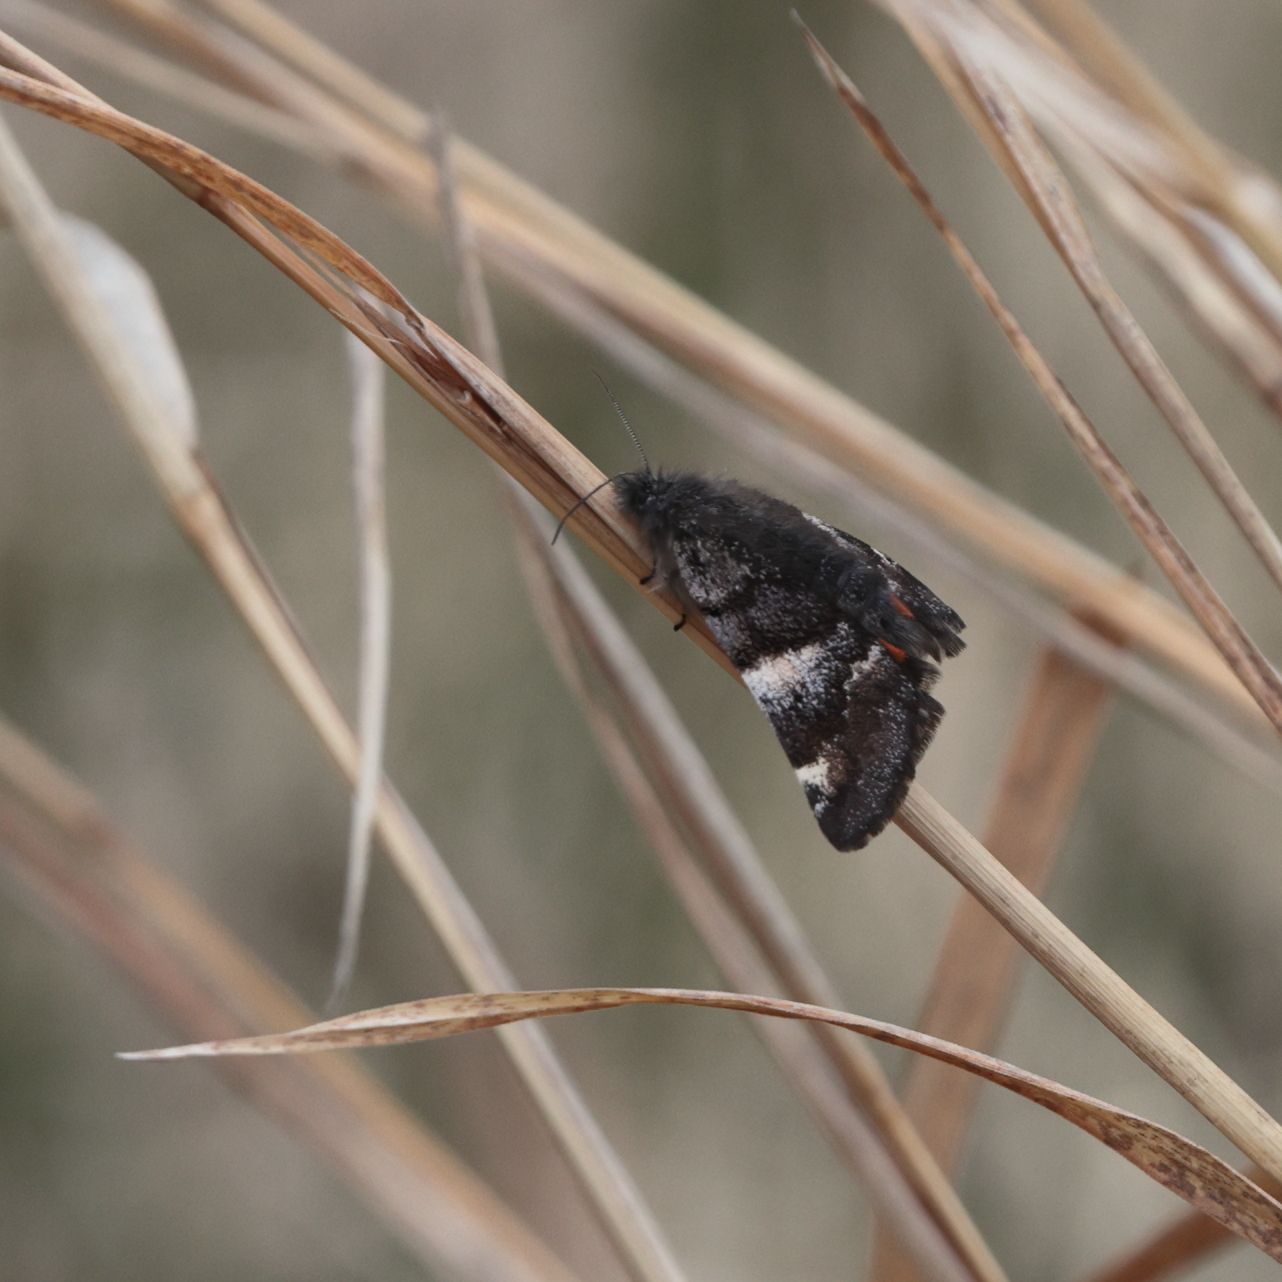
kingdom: Animalia
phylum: Arthropoda
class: Insecta
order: Lepidoptera
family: Geometridae
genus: Archiearis
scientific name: Archiearis infans
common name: First born geometer
